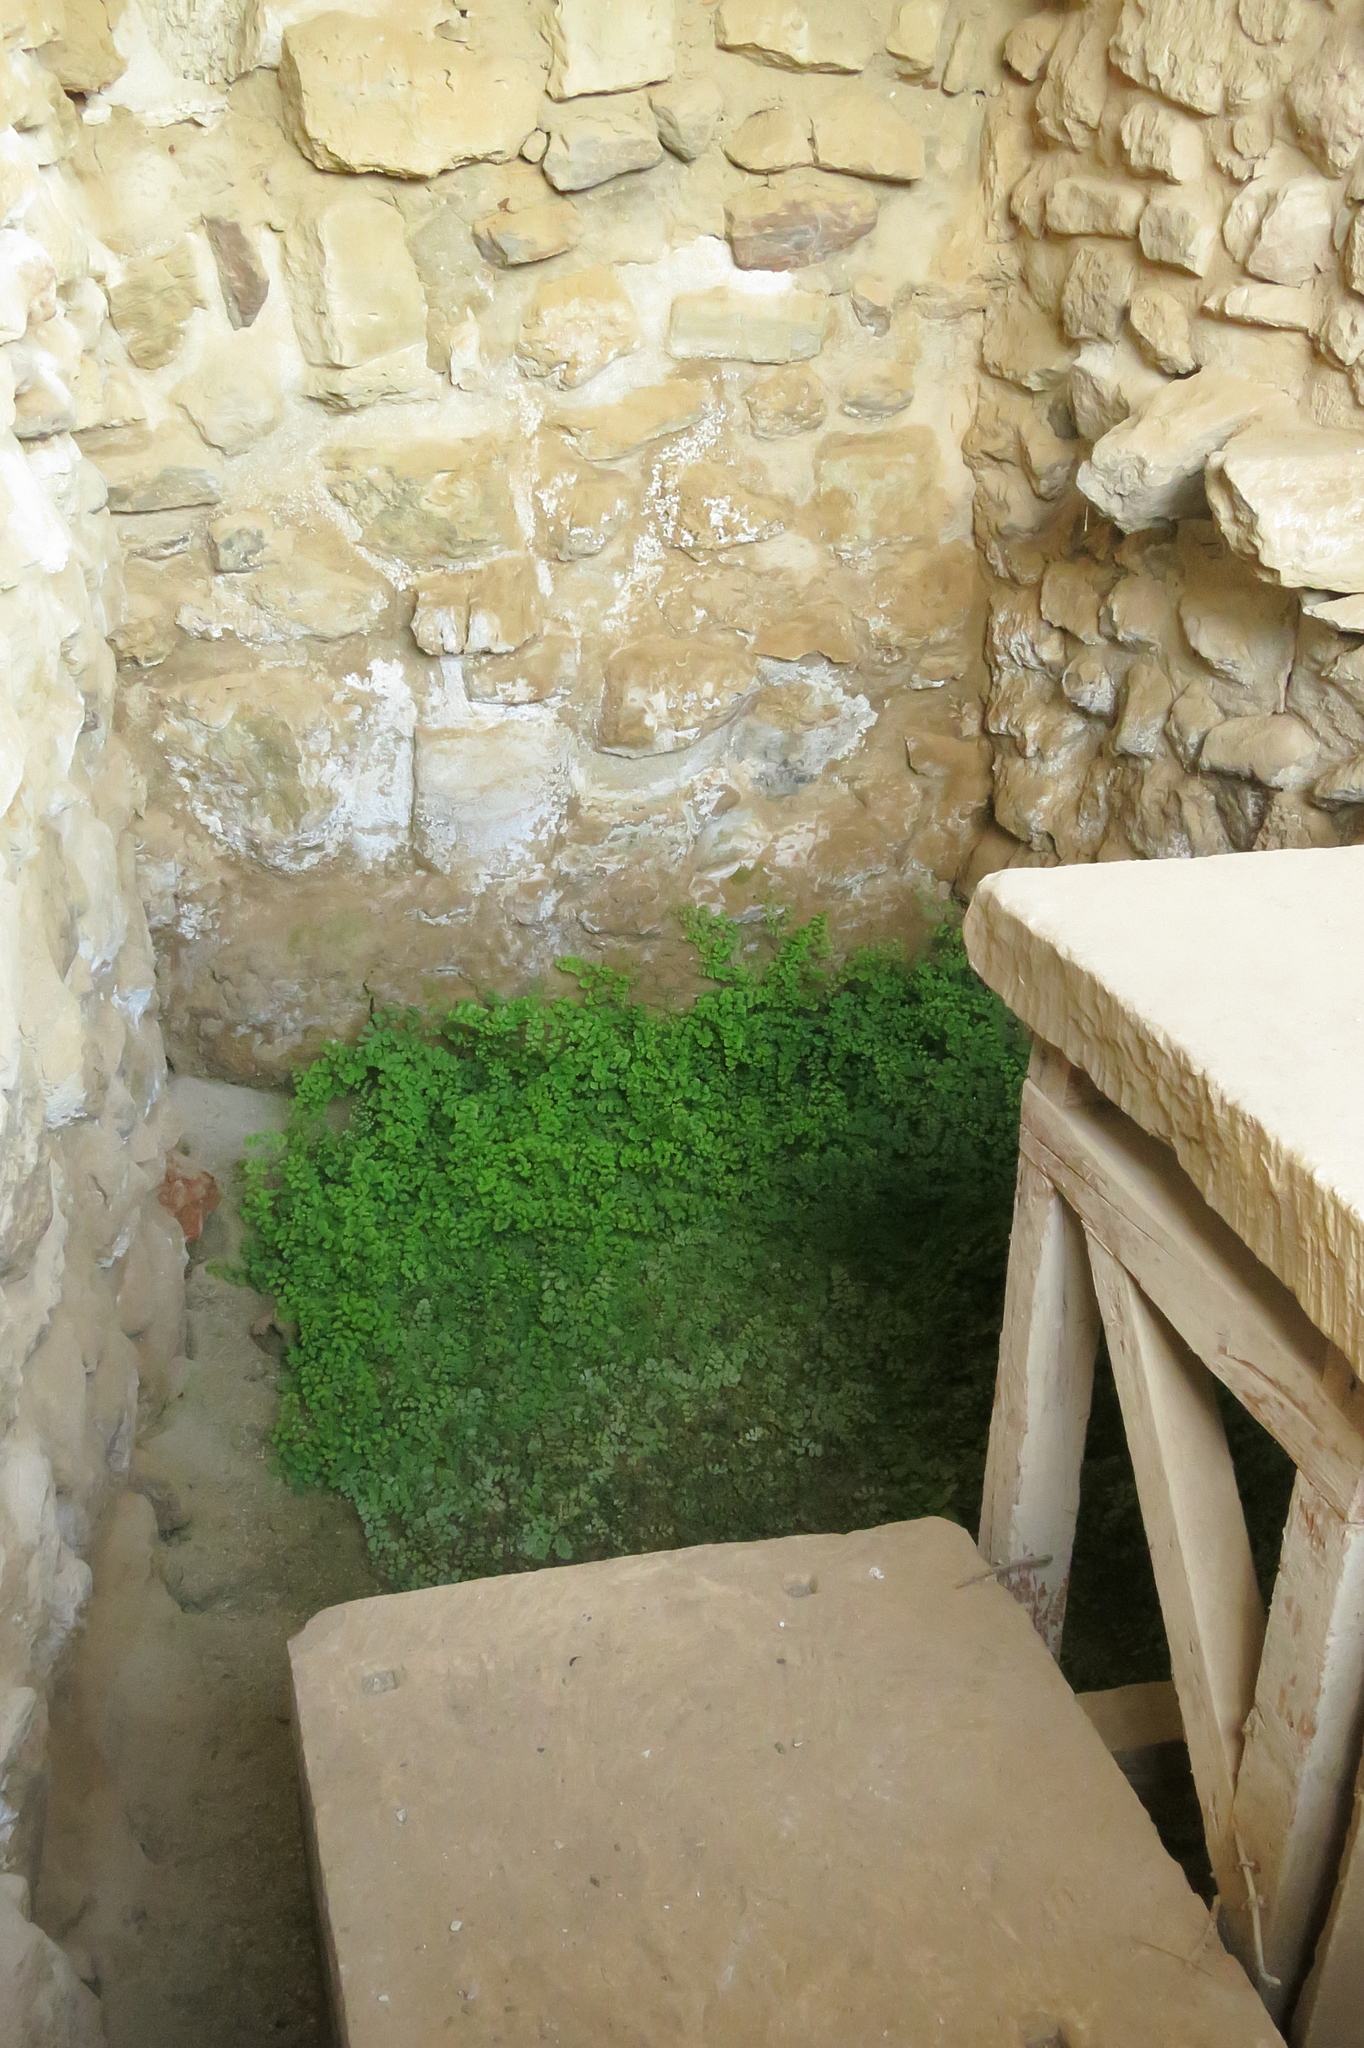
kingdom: Plantae
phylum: Tracheophyta
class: Polypodiopsida
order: Polypodiales
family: Pteridaceae
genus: Adiantum
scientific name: Adiantum capillus-veneris
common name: Maidenhair fern
